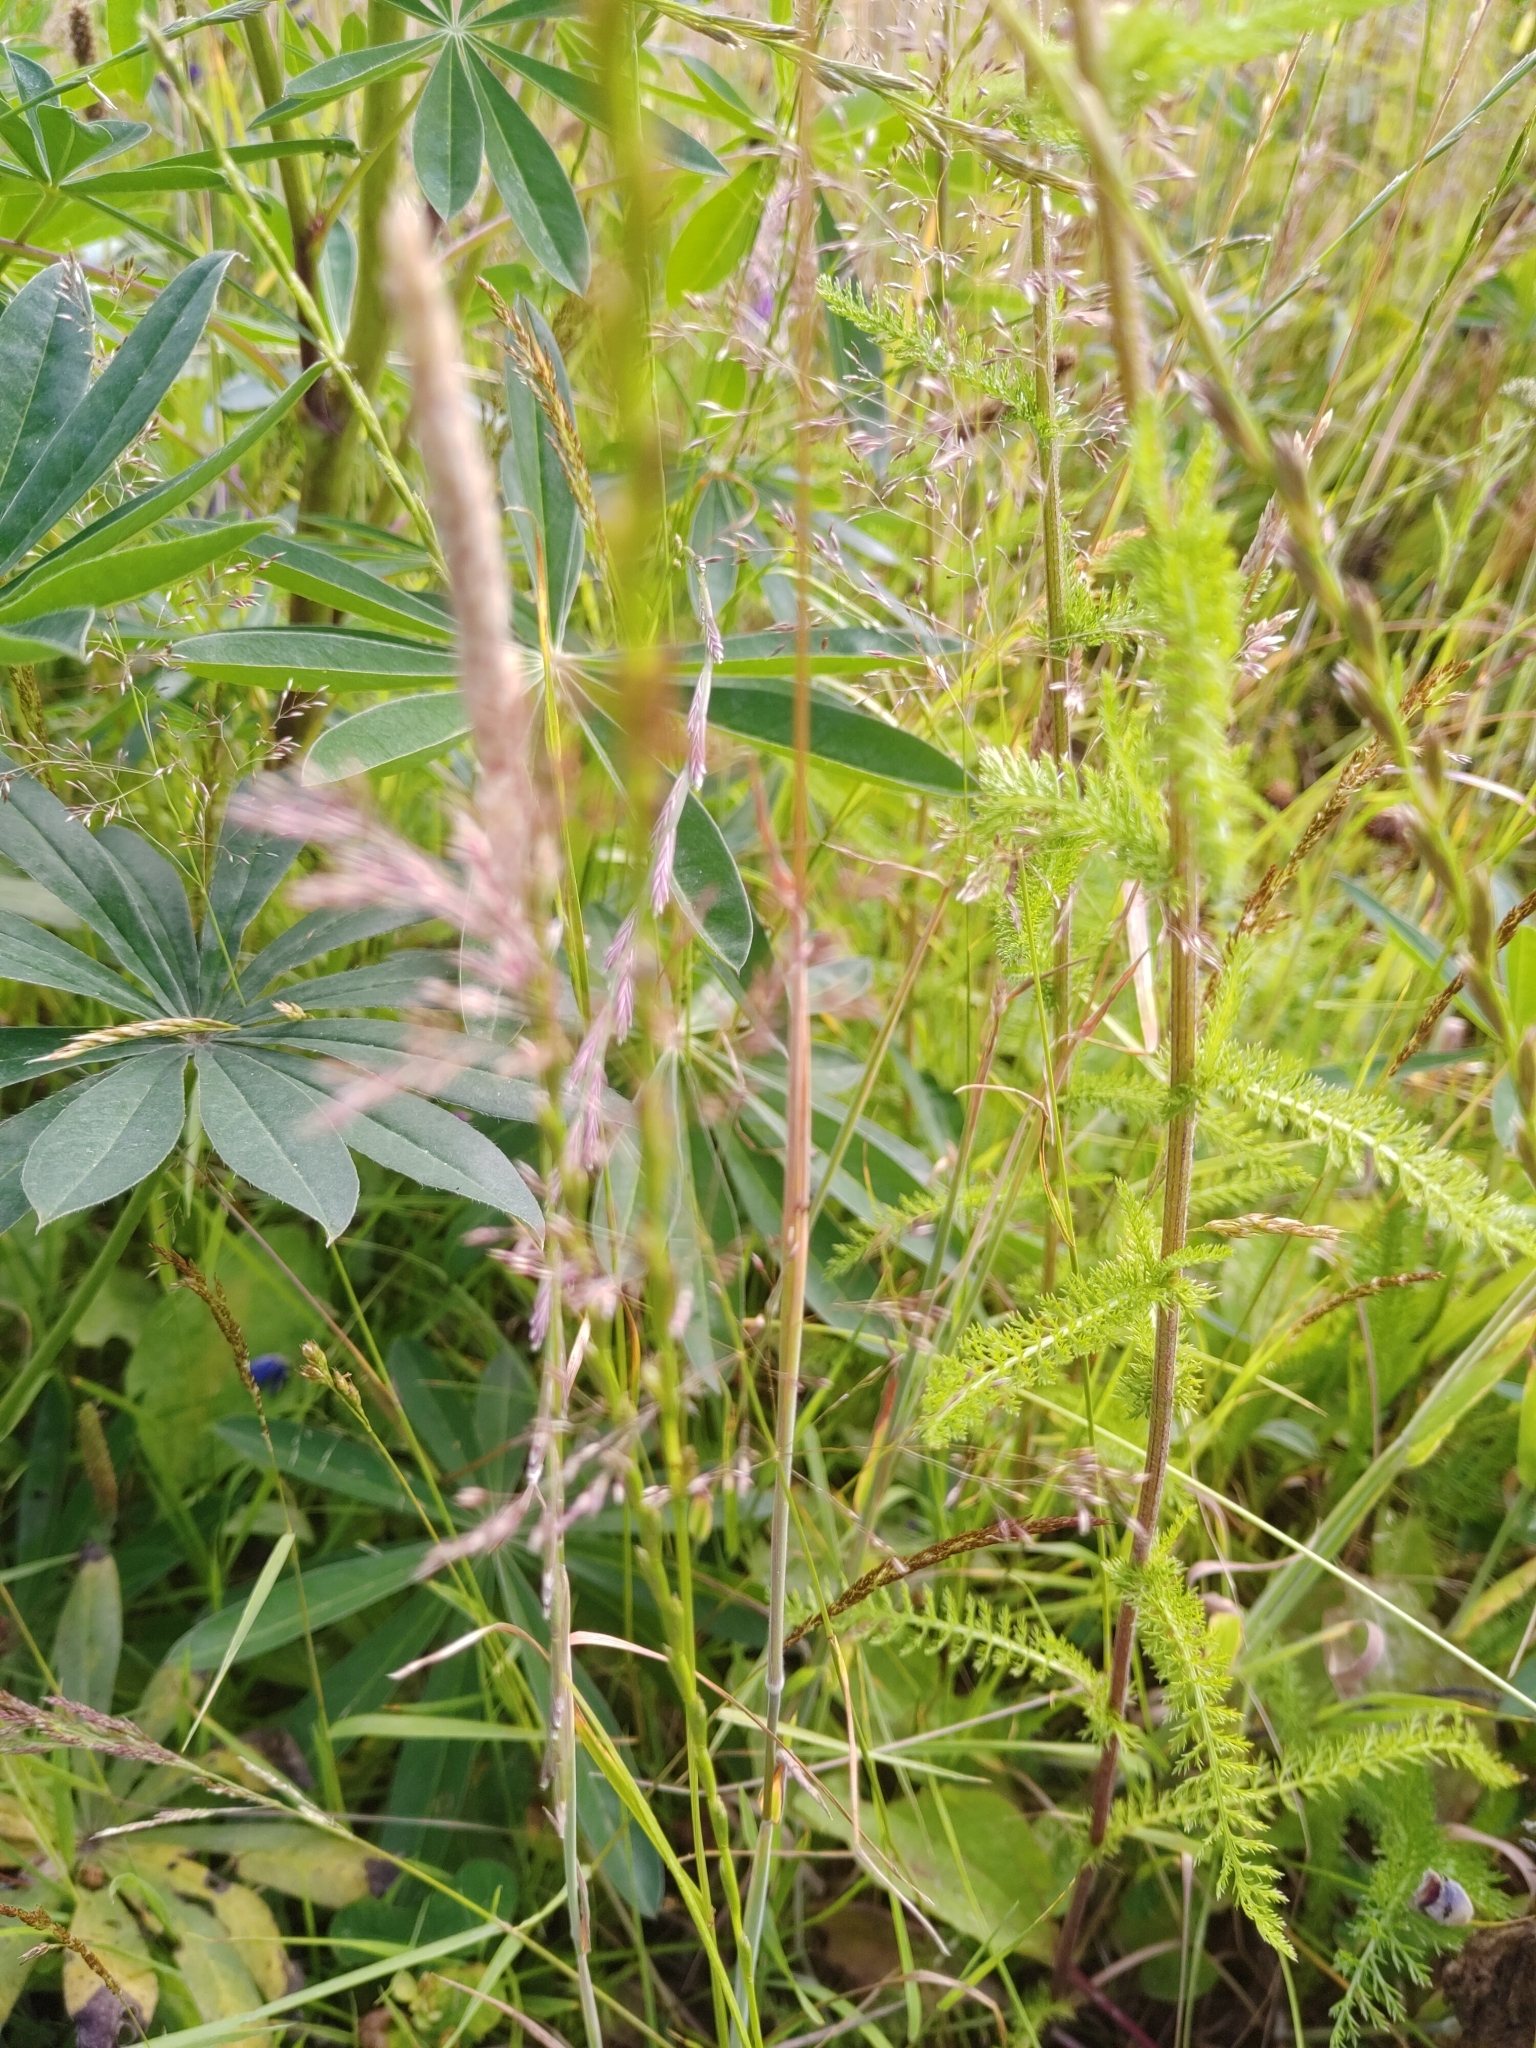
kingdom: Plantae
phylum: Tracheophyta
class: Magnoliopsida
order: Asterales
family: Asteraceae
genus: Achillea
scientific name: Achillea millefolium
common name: Yarrow
